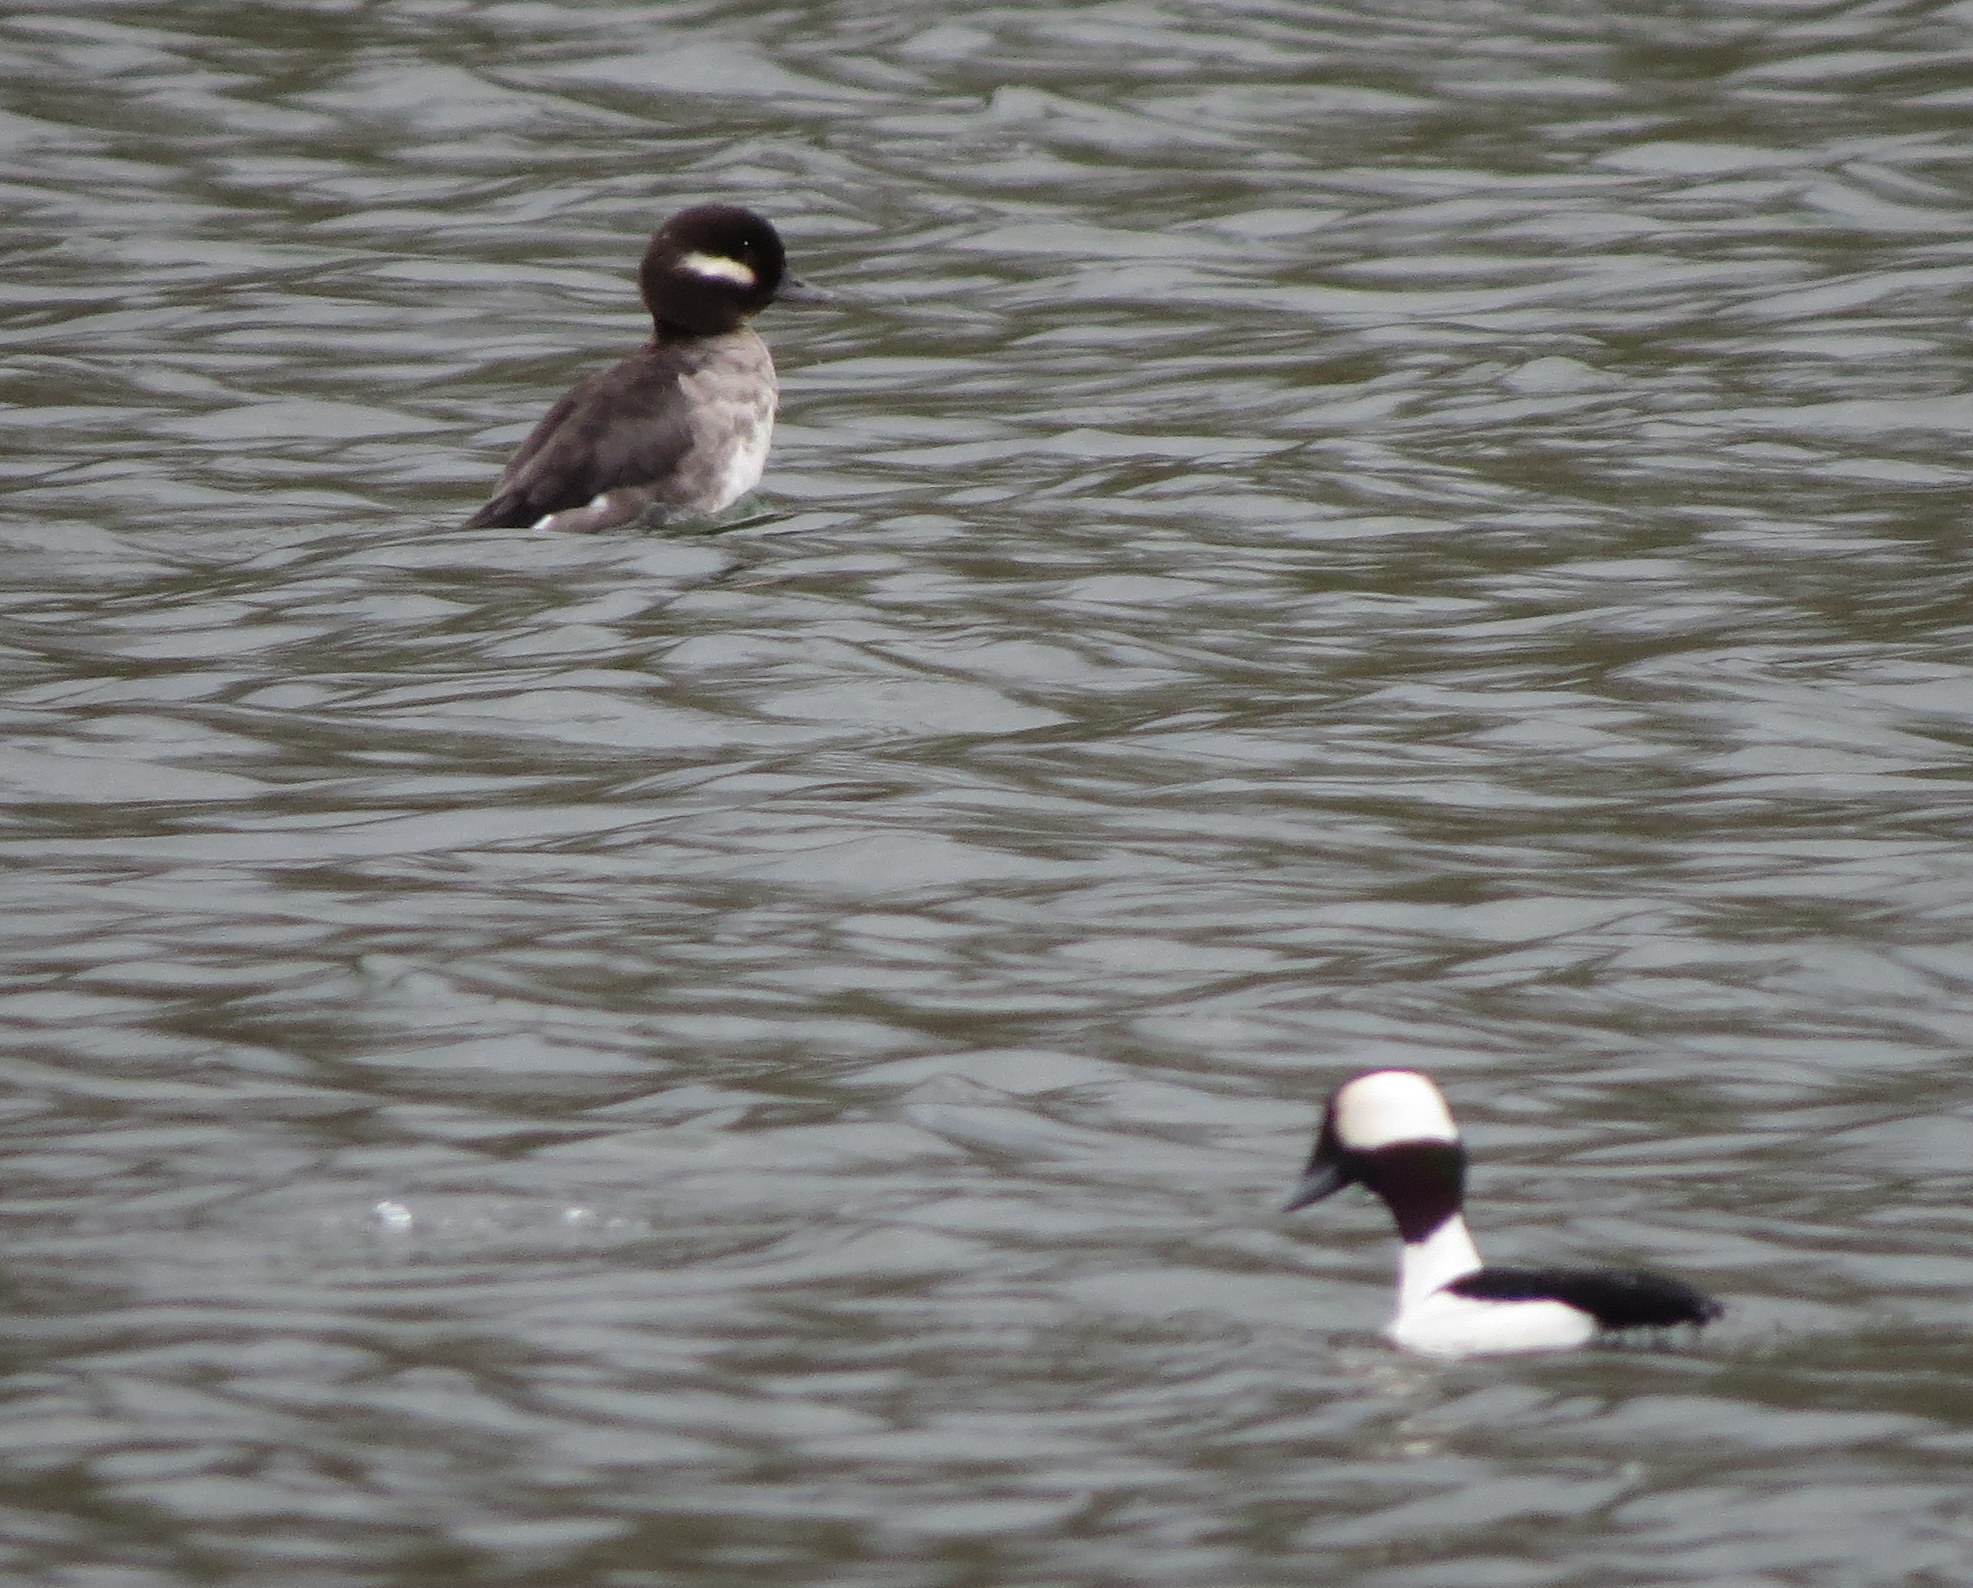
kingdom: Animalia
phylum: Chordata
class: Aves
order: Anseriformes
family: Anatidae
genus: Bucephala
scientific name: Bucephala albeola
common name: Bufflehead
